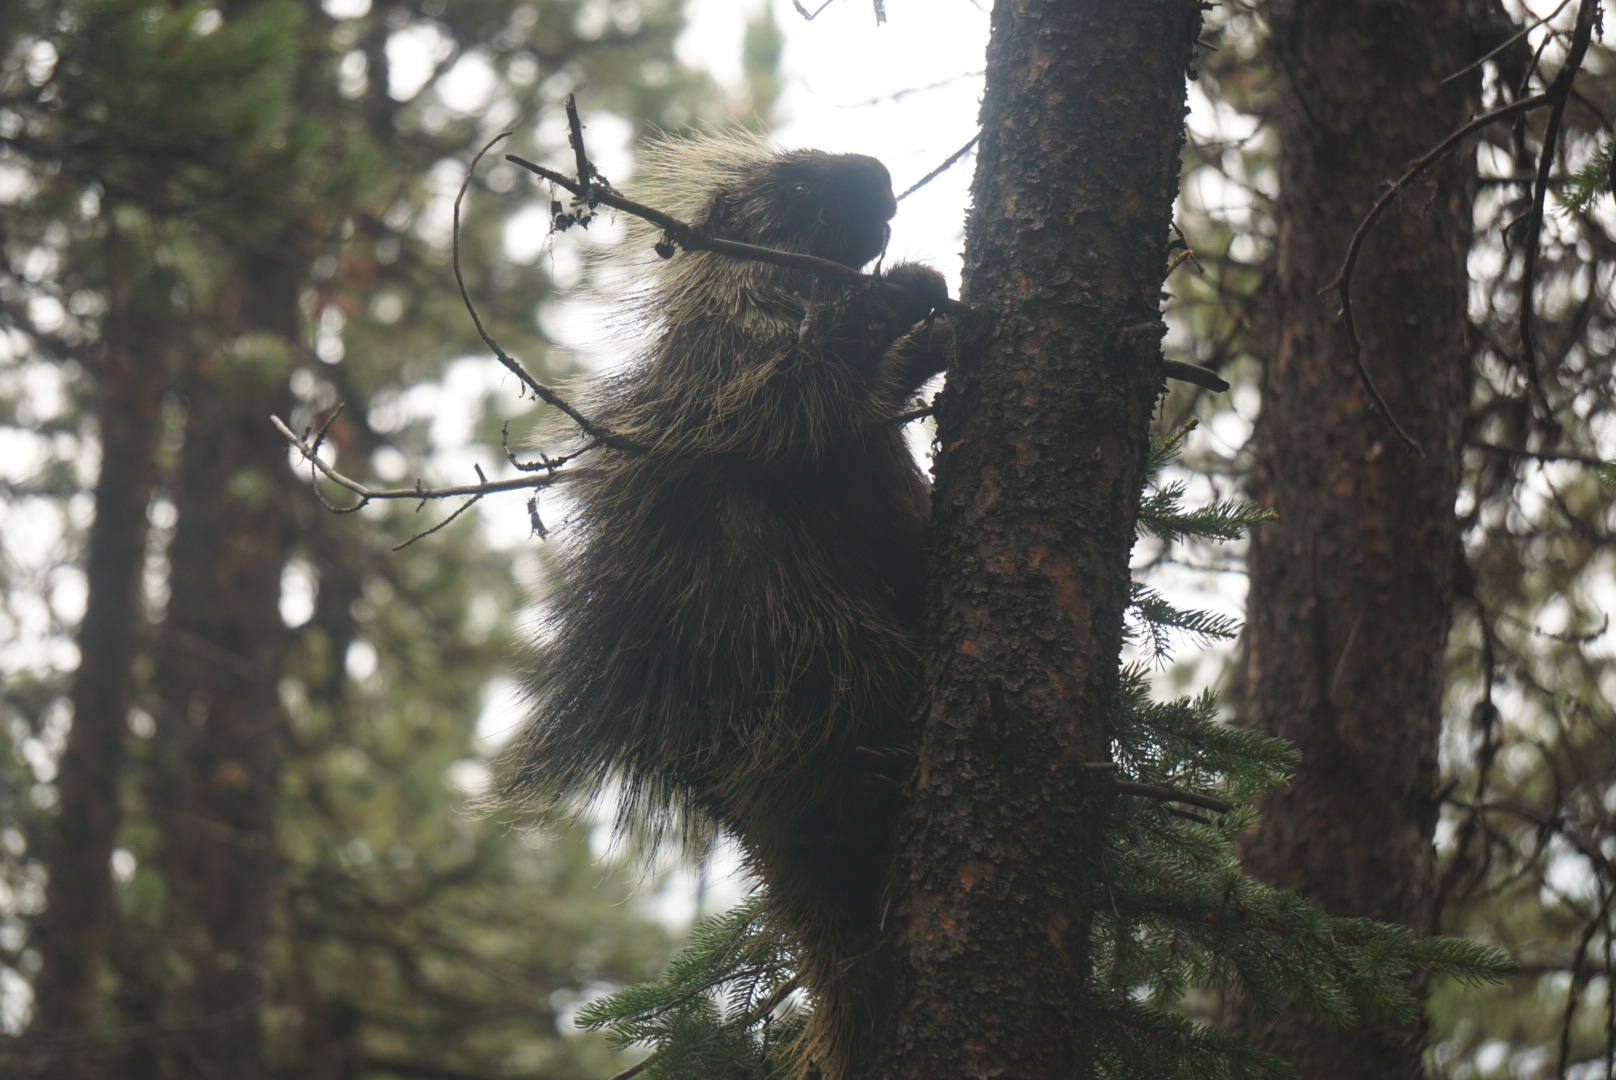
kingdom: Animalia
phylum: Chordata
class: Mammalia
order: Rodentia
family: Erethizontidae
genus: Erethizon
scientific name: Erethizon dorsatus
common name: North american porcupine
